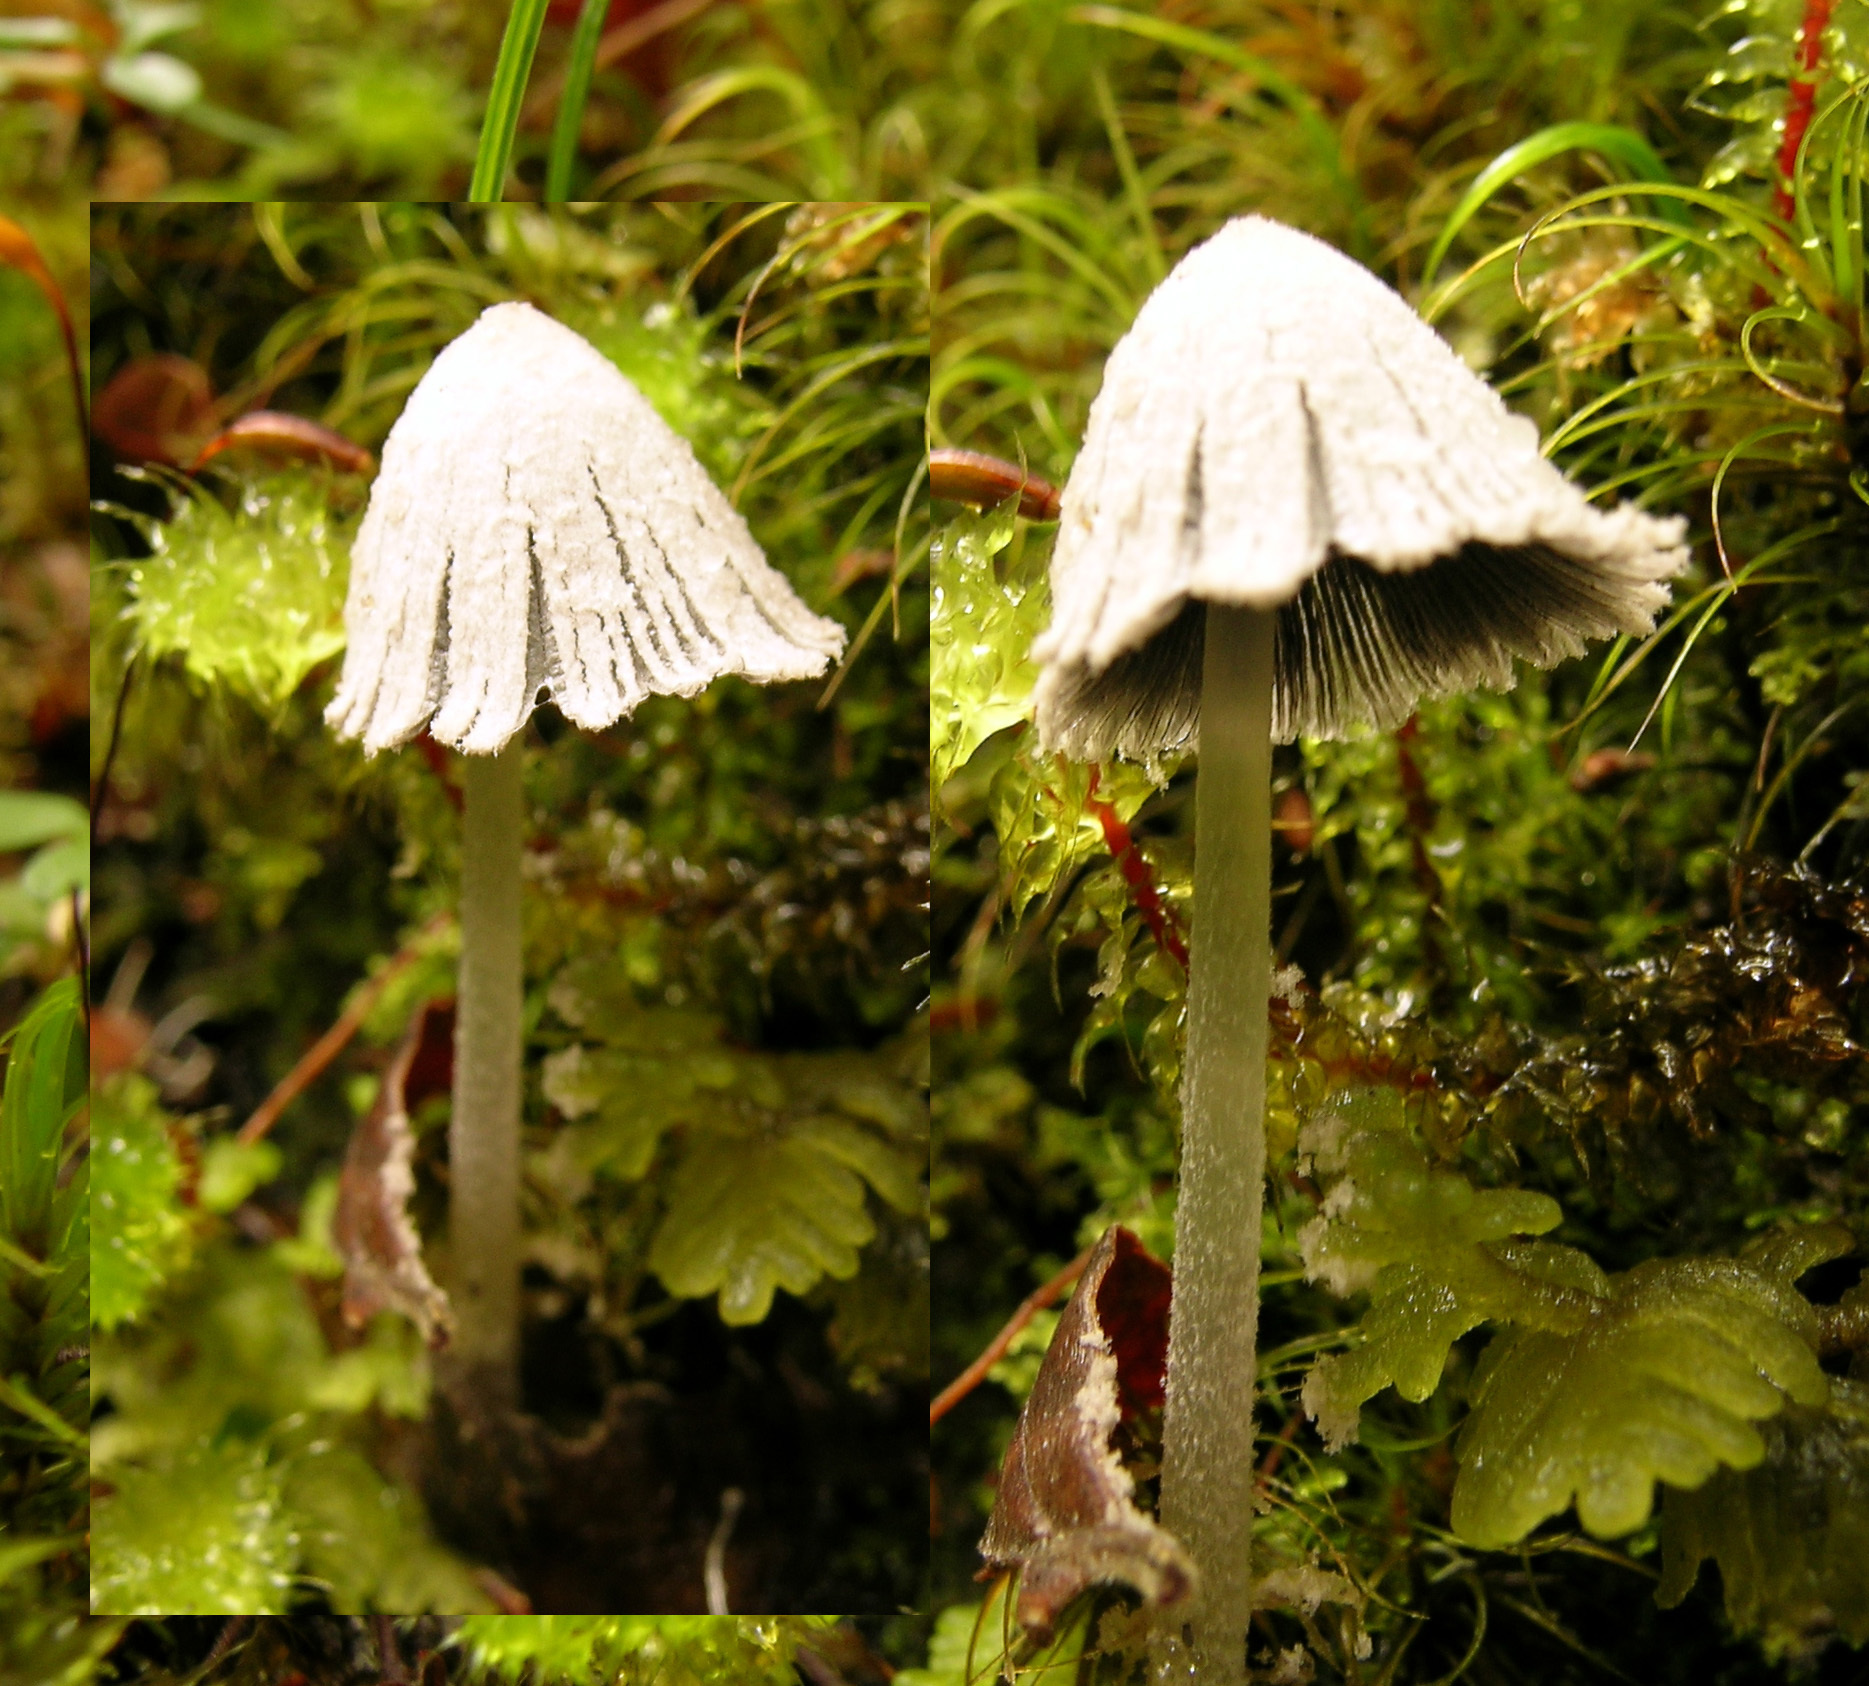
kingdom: Fungi
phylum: Basidiomycota
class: Agaricomycetes
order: Agaricales
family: Psathyrellaceae
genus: Coprinopsis
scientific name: Coprinopsis semitalis
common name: Winged inkcap
